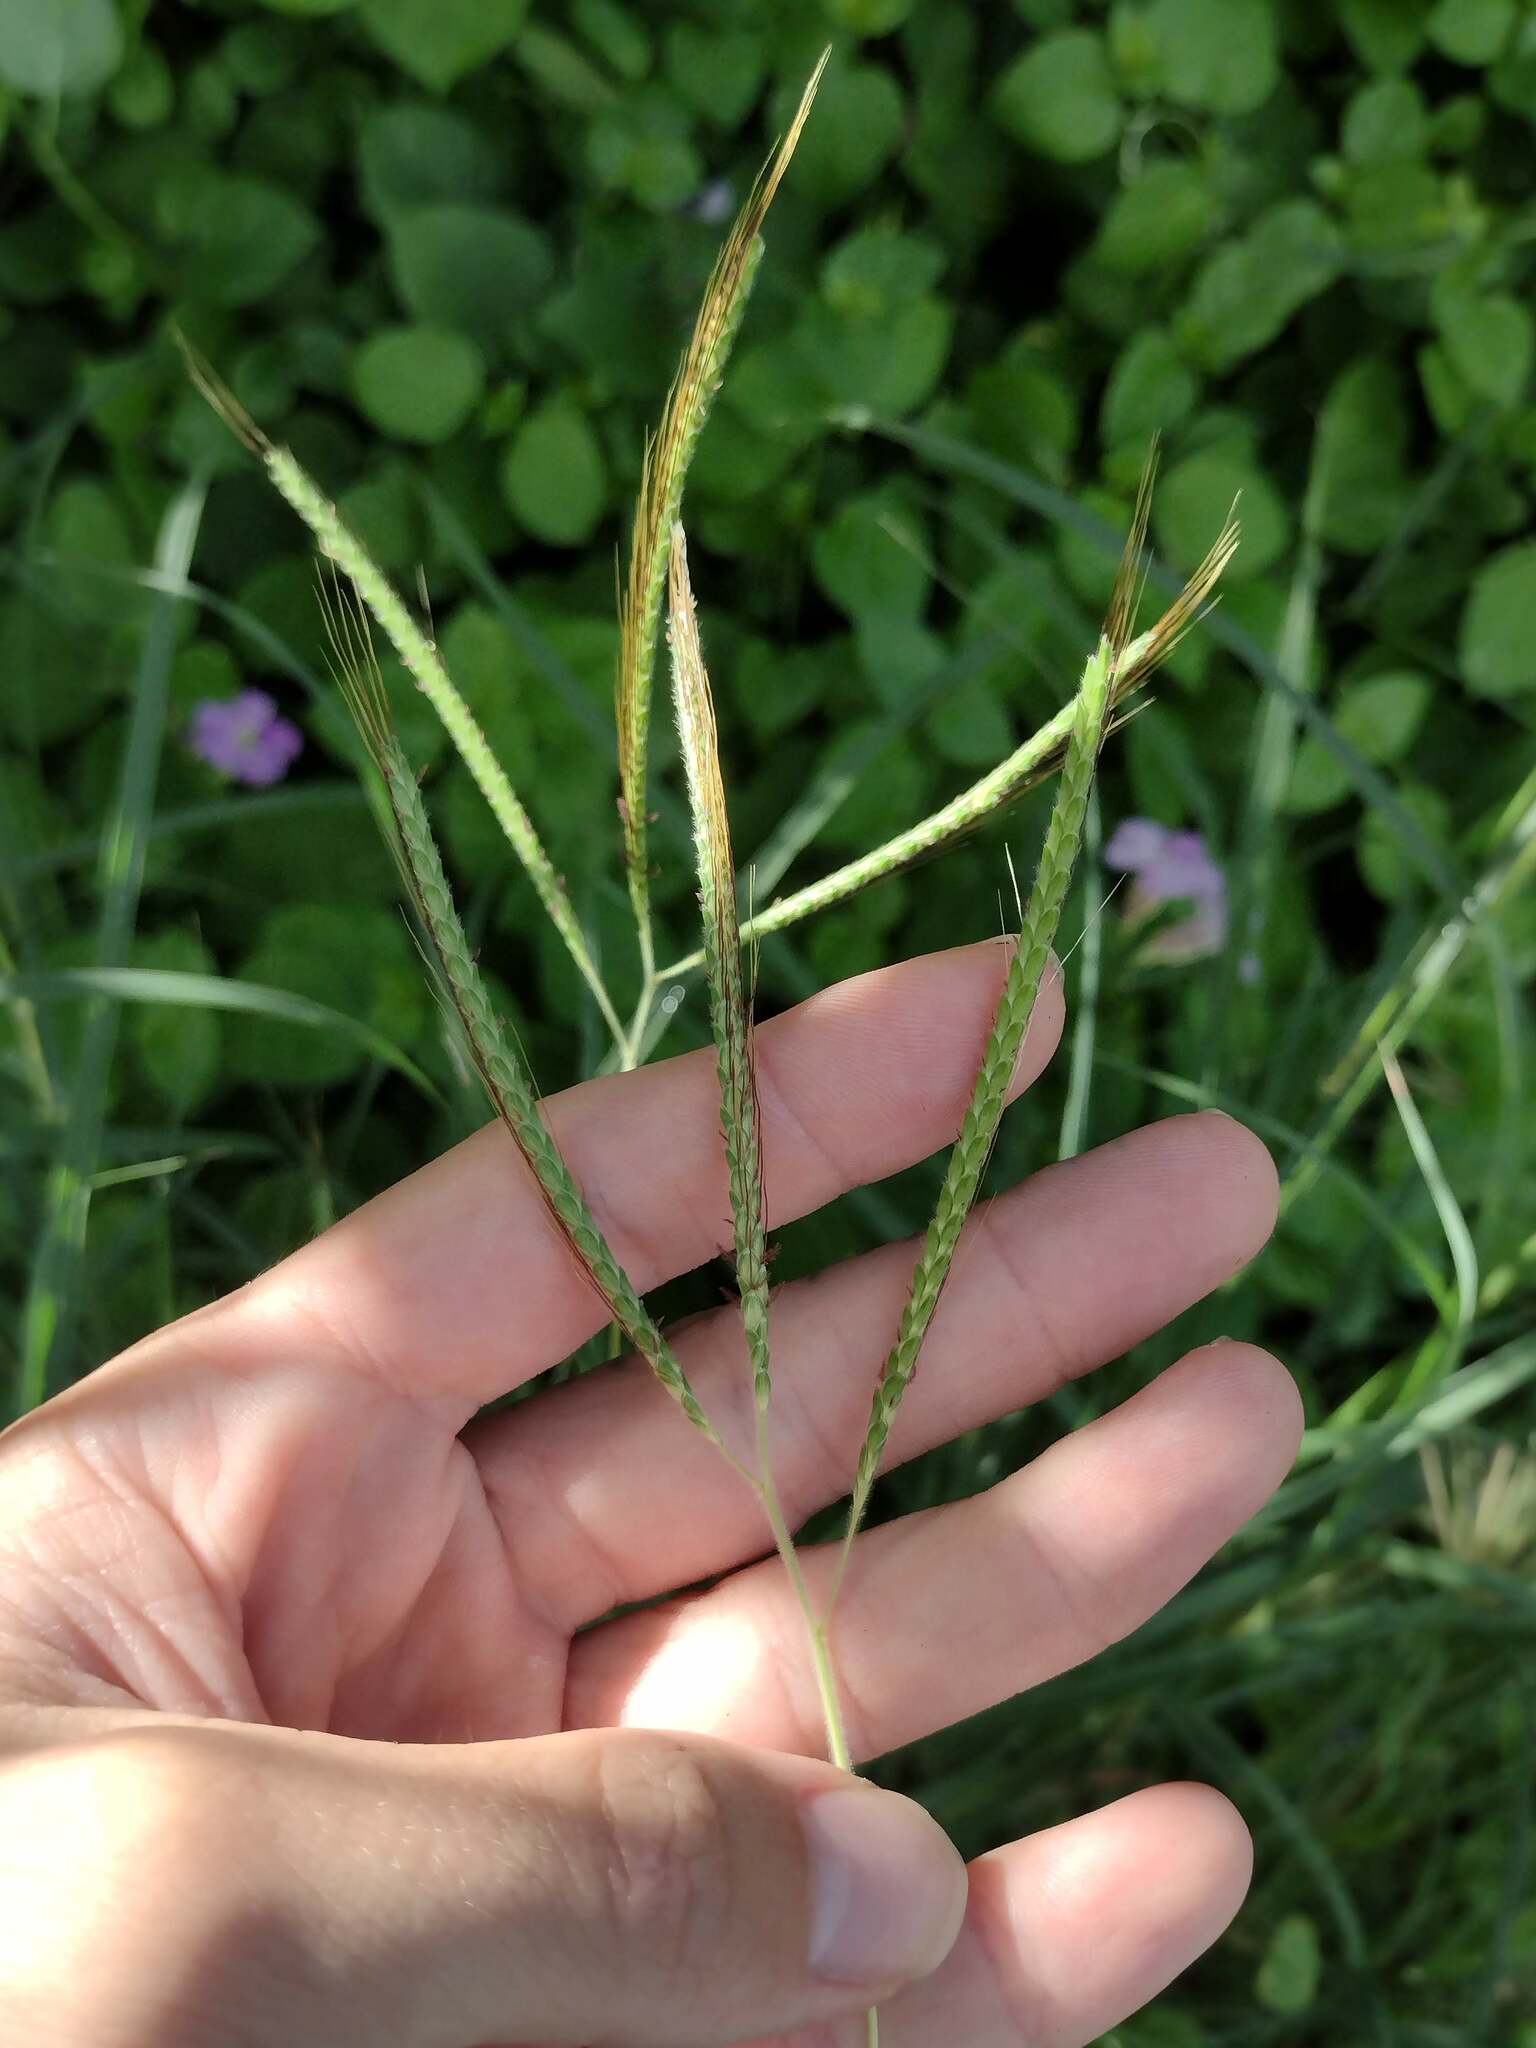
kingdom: Plantae
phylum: Tracheophyta
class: Liliopsida
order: Poales
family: Poaceae
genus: Dichanthium
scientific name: Dichanthium aristatum
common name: Angleton bluestem
